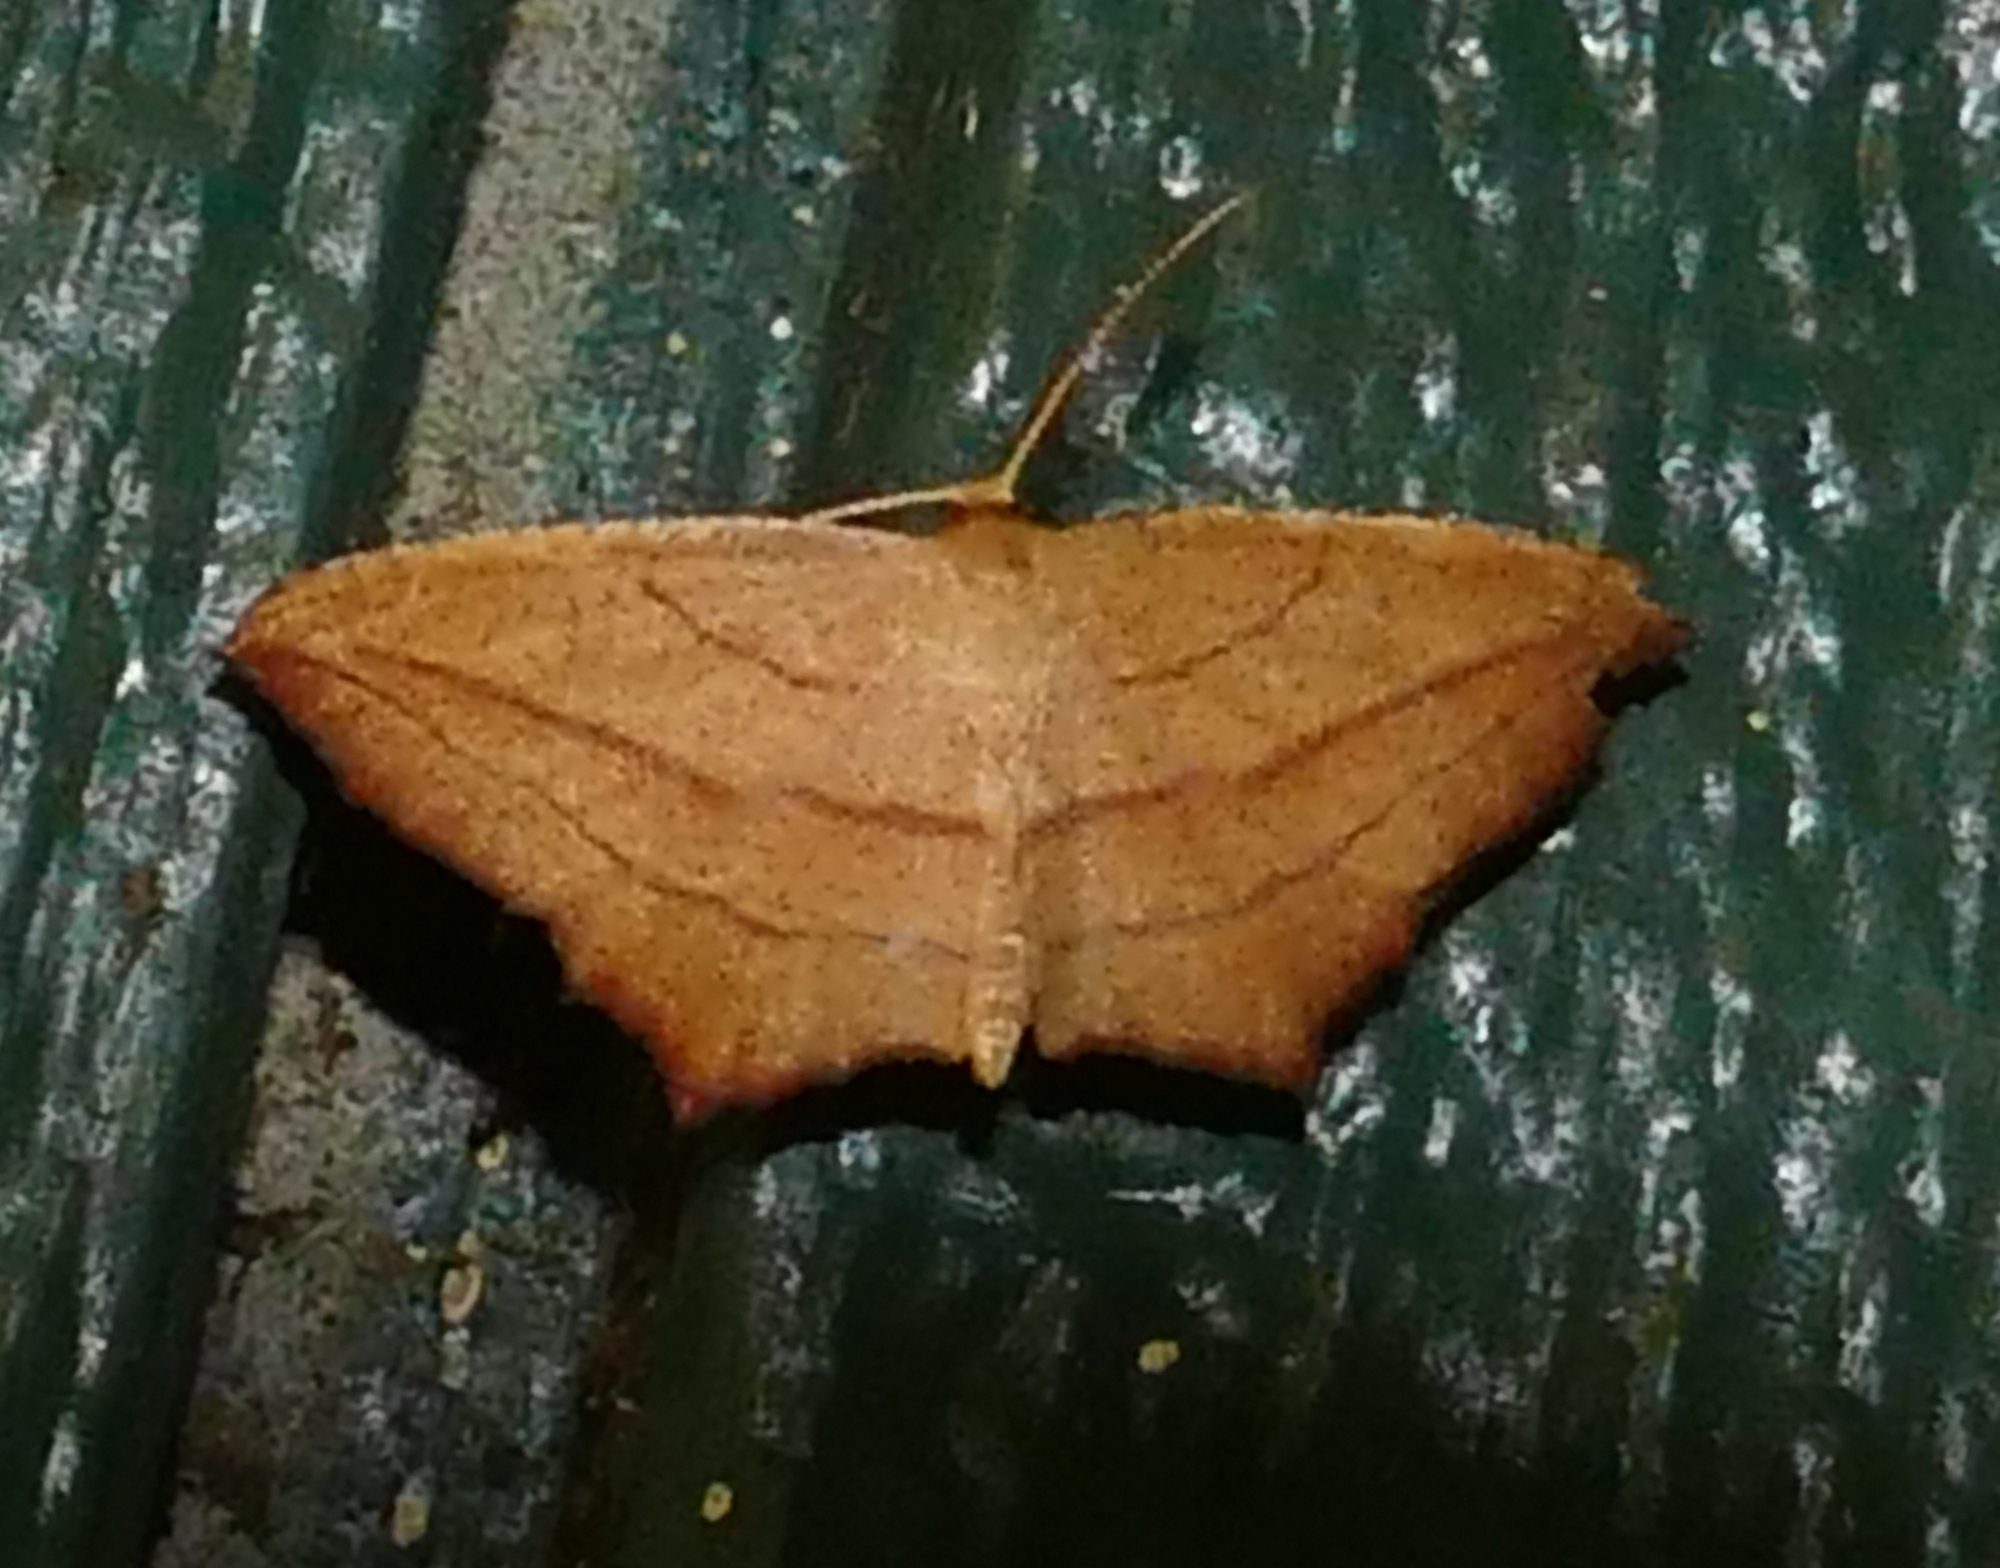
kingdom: Animalia
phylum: Arthropoda
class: Insecta
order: Lepidoptera
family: Geometridae
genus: Timandra
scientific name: Timandra amaturaria
